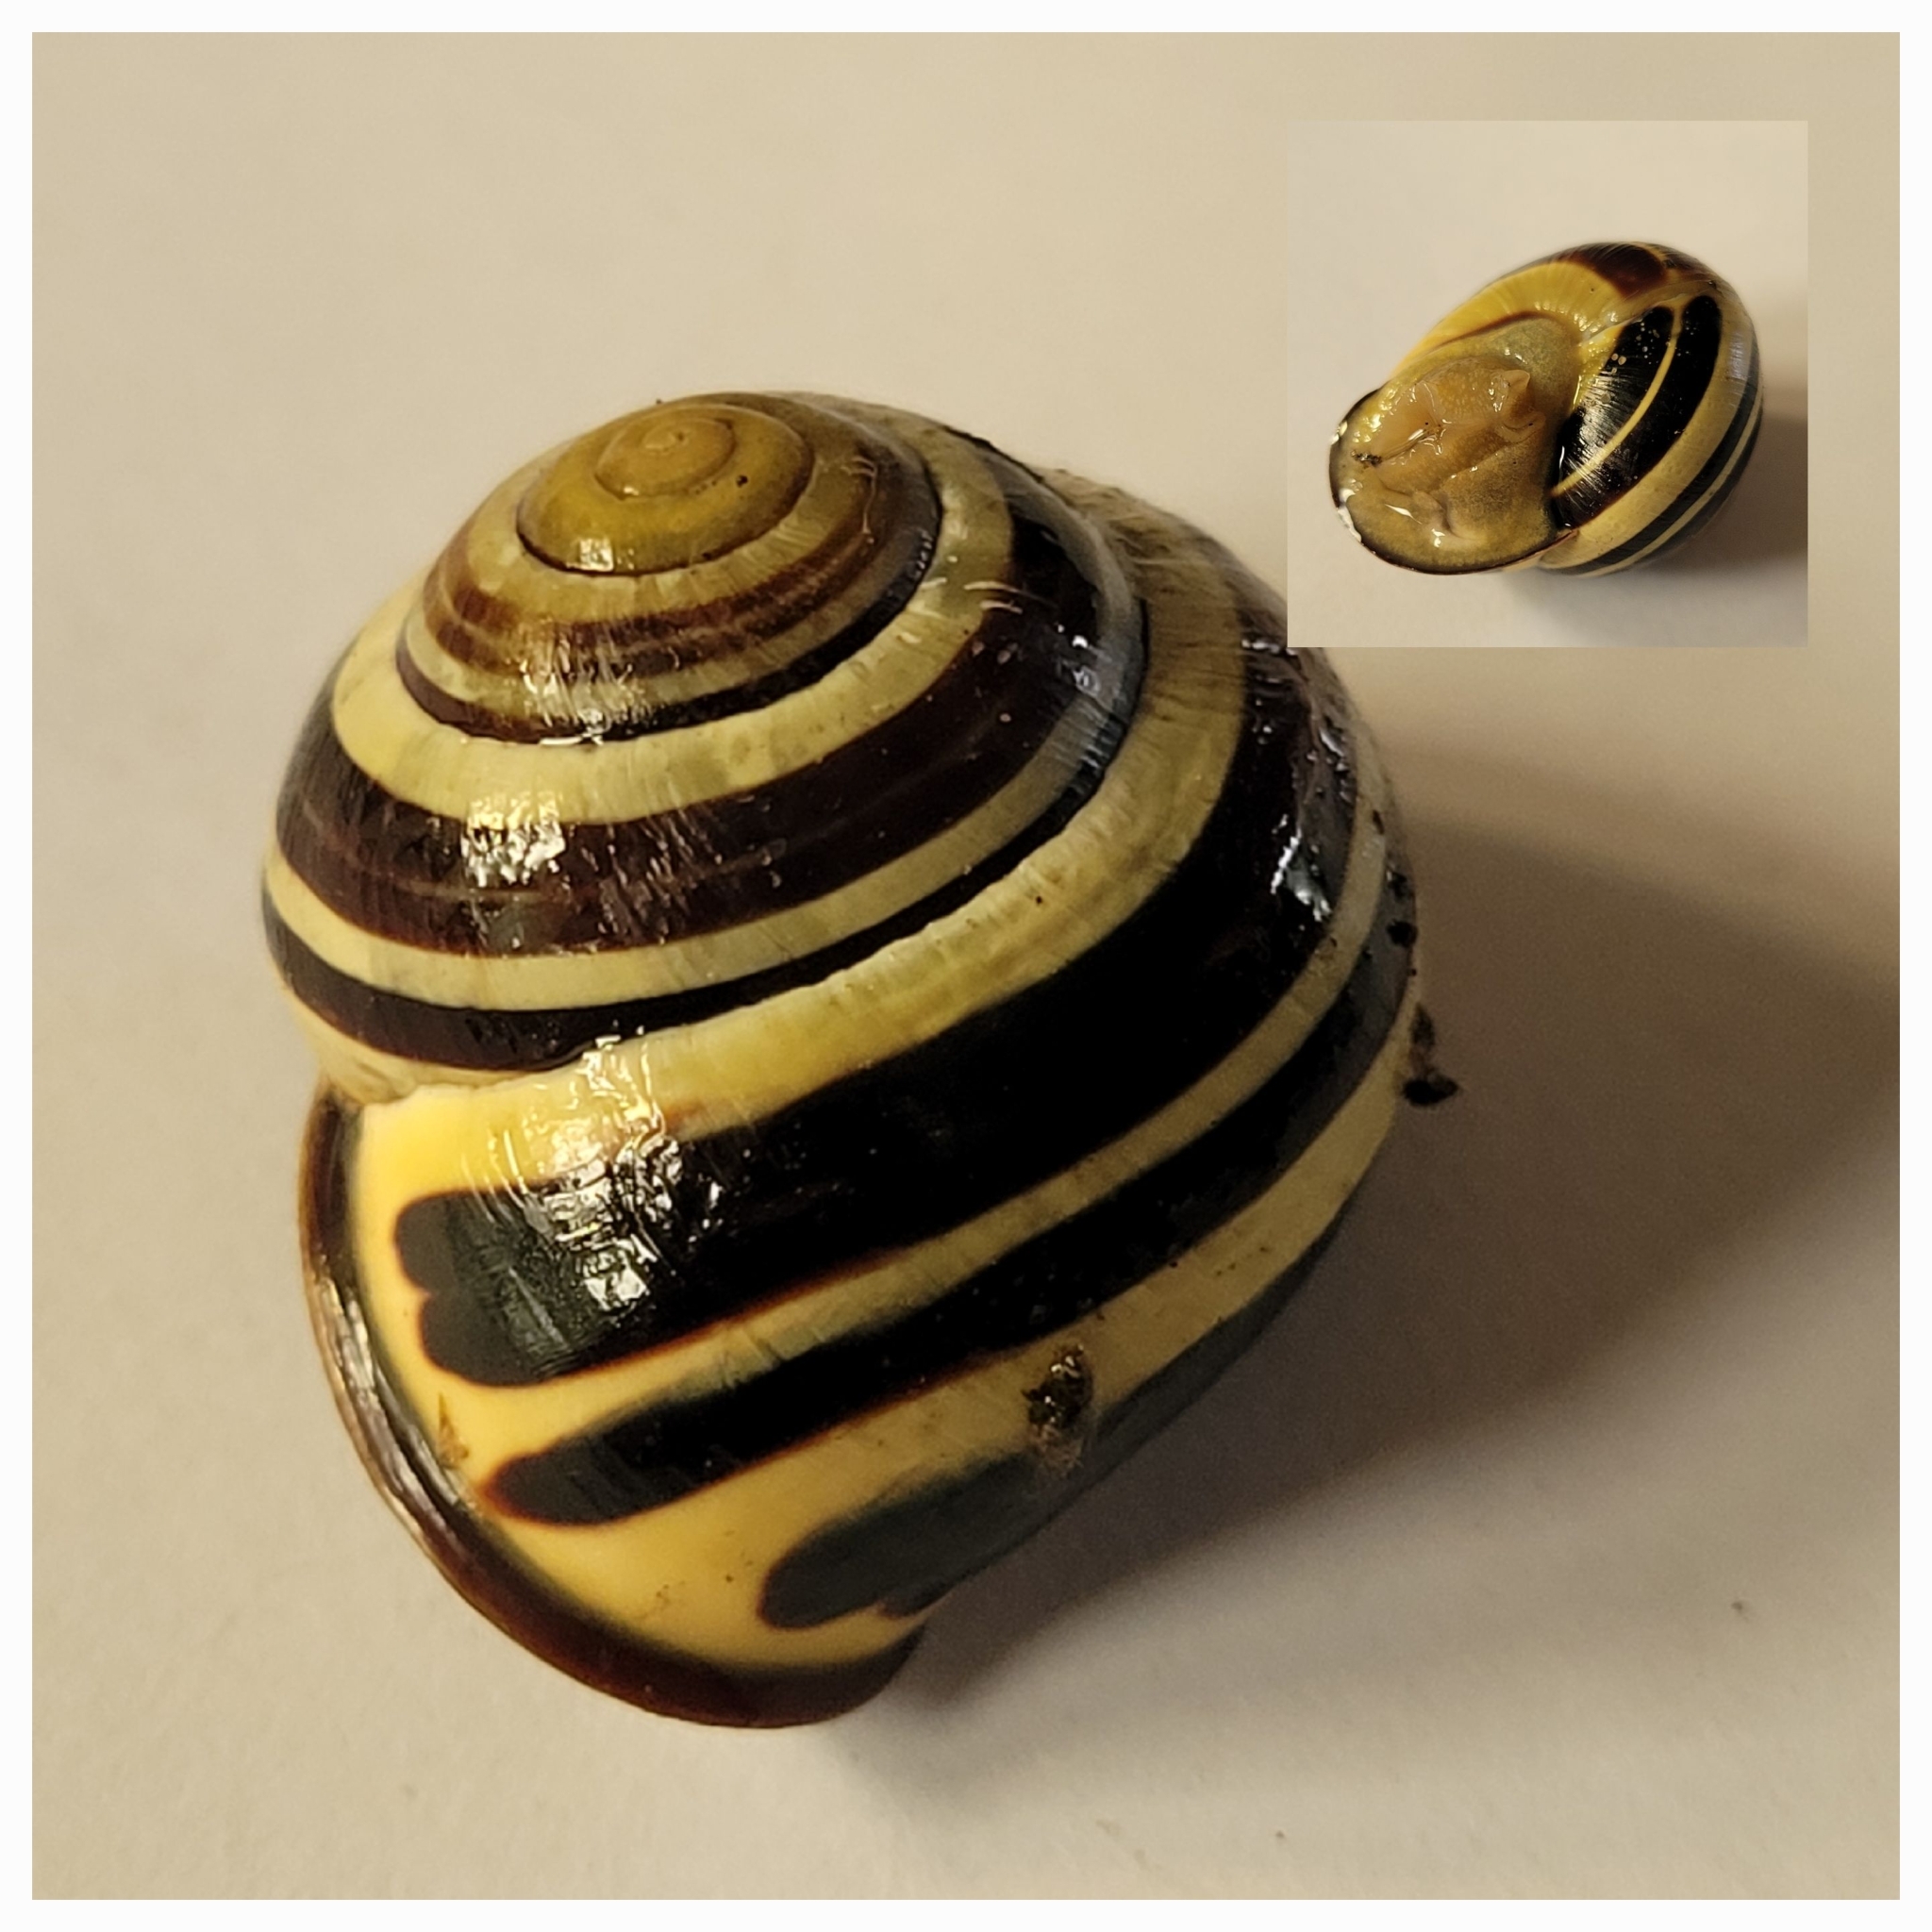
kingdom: Animalia
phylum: Mollusca
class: Gastropoda
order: Stylommatophora
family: Helicidae
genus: Cepaea
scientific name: Cepaea nemoralis
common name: Grovesnail
